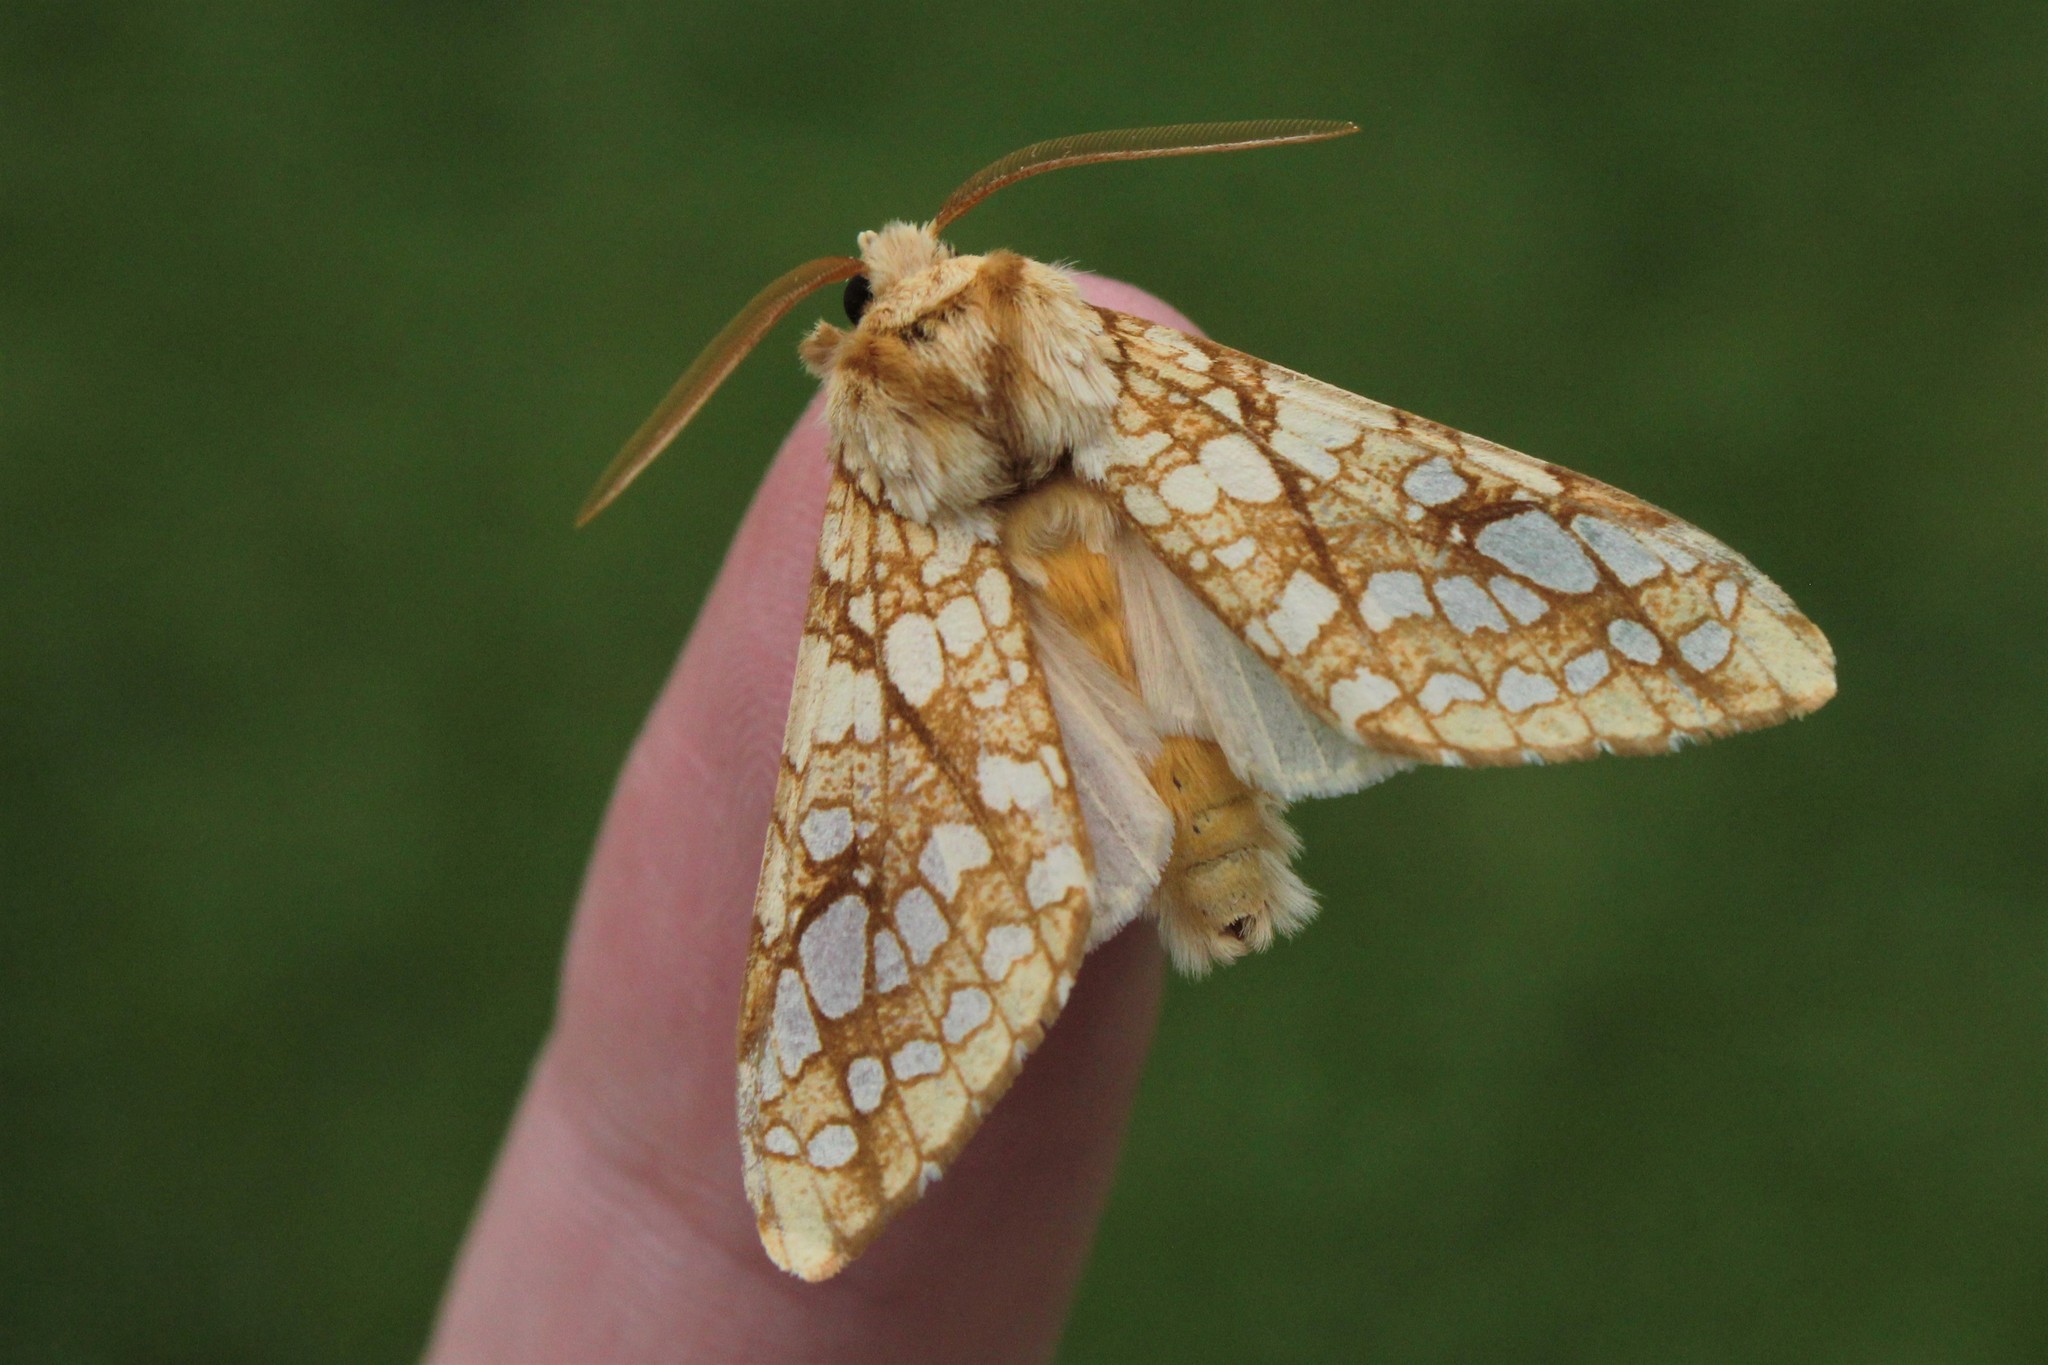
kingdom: Animalia
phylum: Arthropoda
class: Insecta
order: Lepidoptera
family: Erebidae
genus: Lophocampa
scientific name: Lophocampa caryae
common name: Hickory tussock moth
